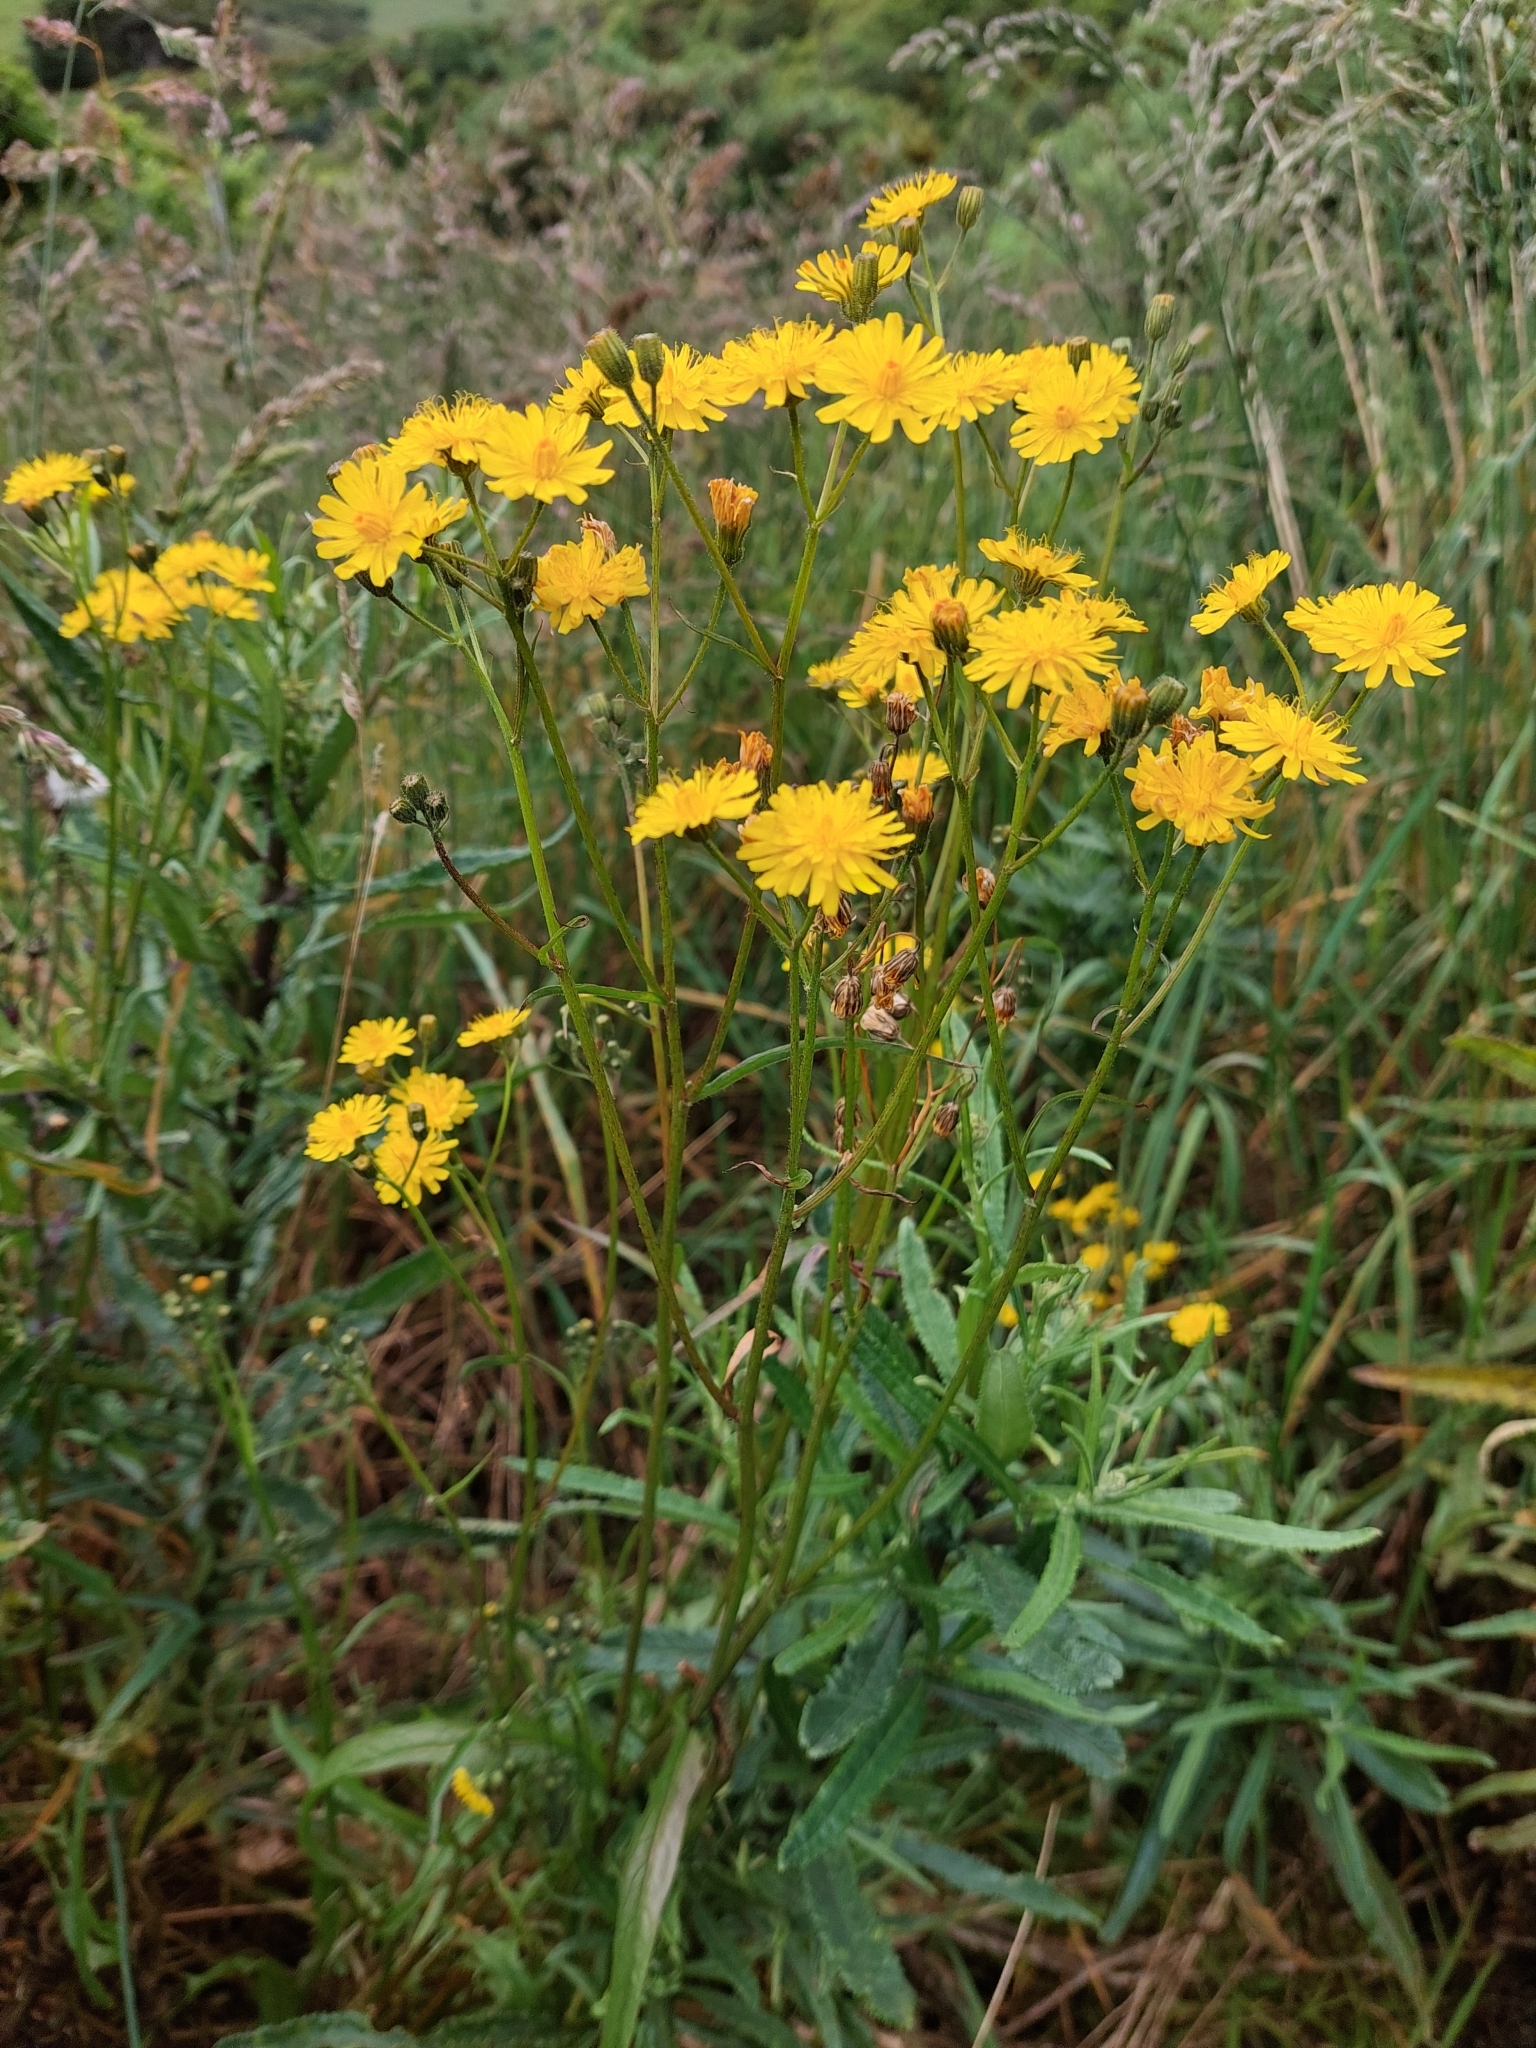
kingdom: Plantae
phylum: Tracheophyta
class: Magnoliopsida
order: Asterales
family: Asteraceae
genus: Crepis
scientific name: Crepis capillaris
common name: Smooth hawksbeard
